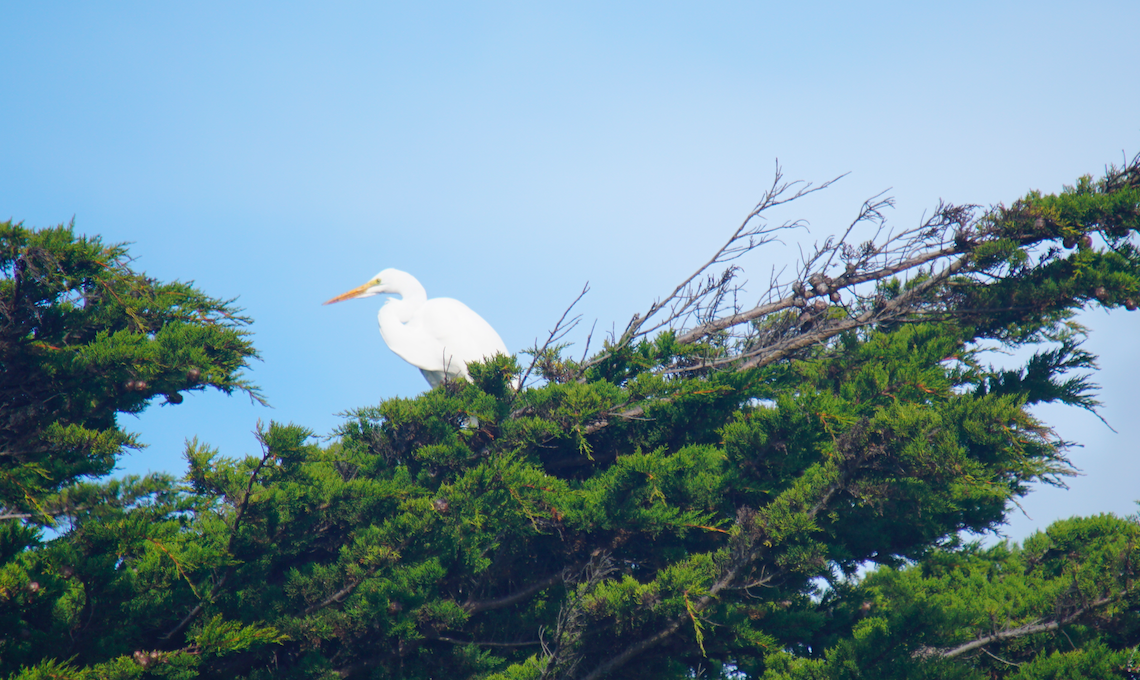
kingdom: Animalia
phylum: Chordata
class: Aves
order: Pelecaniformes
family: Ardeidae
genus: Ardea
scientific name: Ardea alba
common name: Great egret
